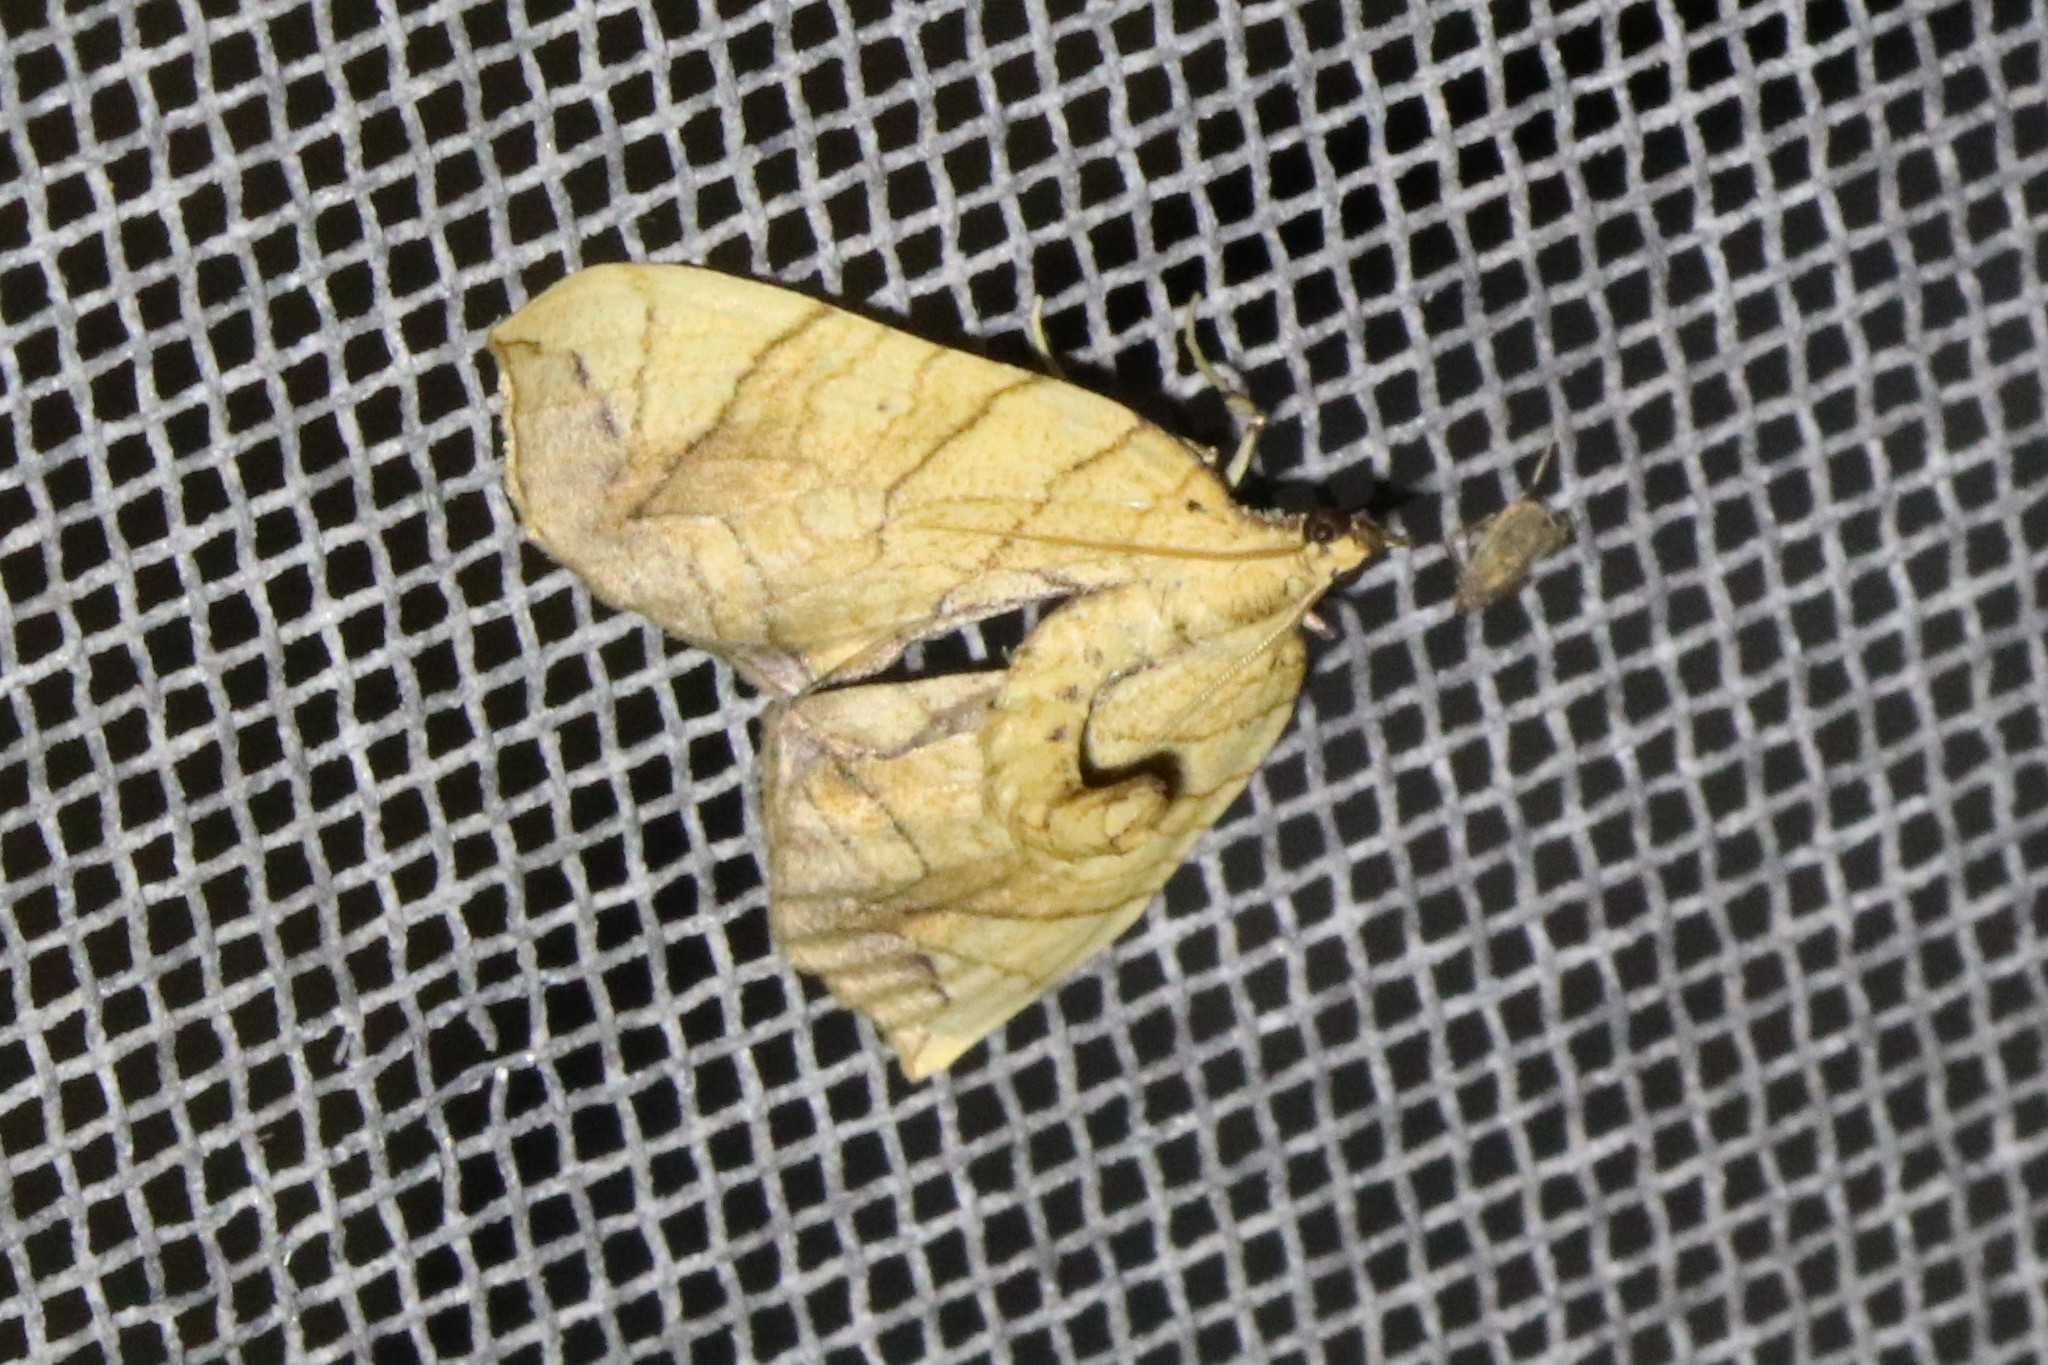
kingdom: Animalia
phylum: Arthropoda
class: Insecta
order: Lepidoptera
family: Geometridae
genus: Eulithis
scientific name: Eulithis
